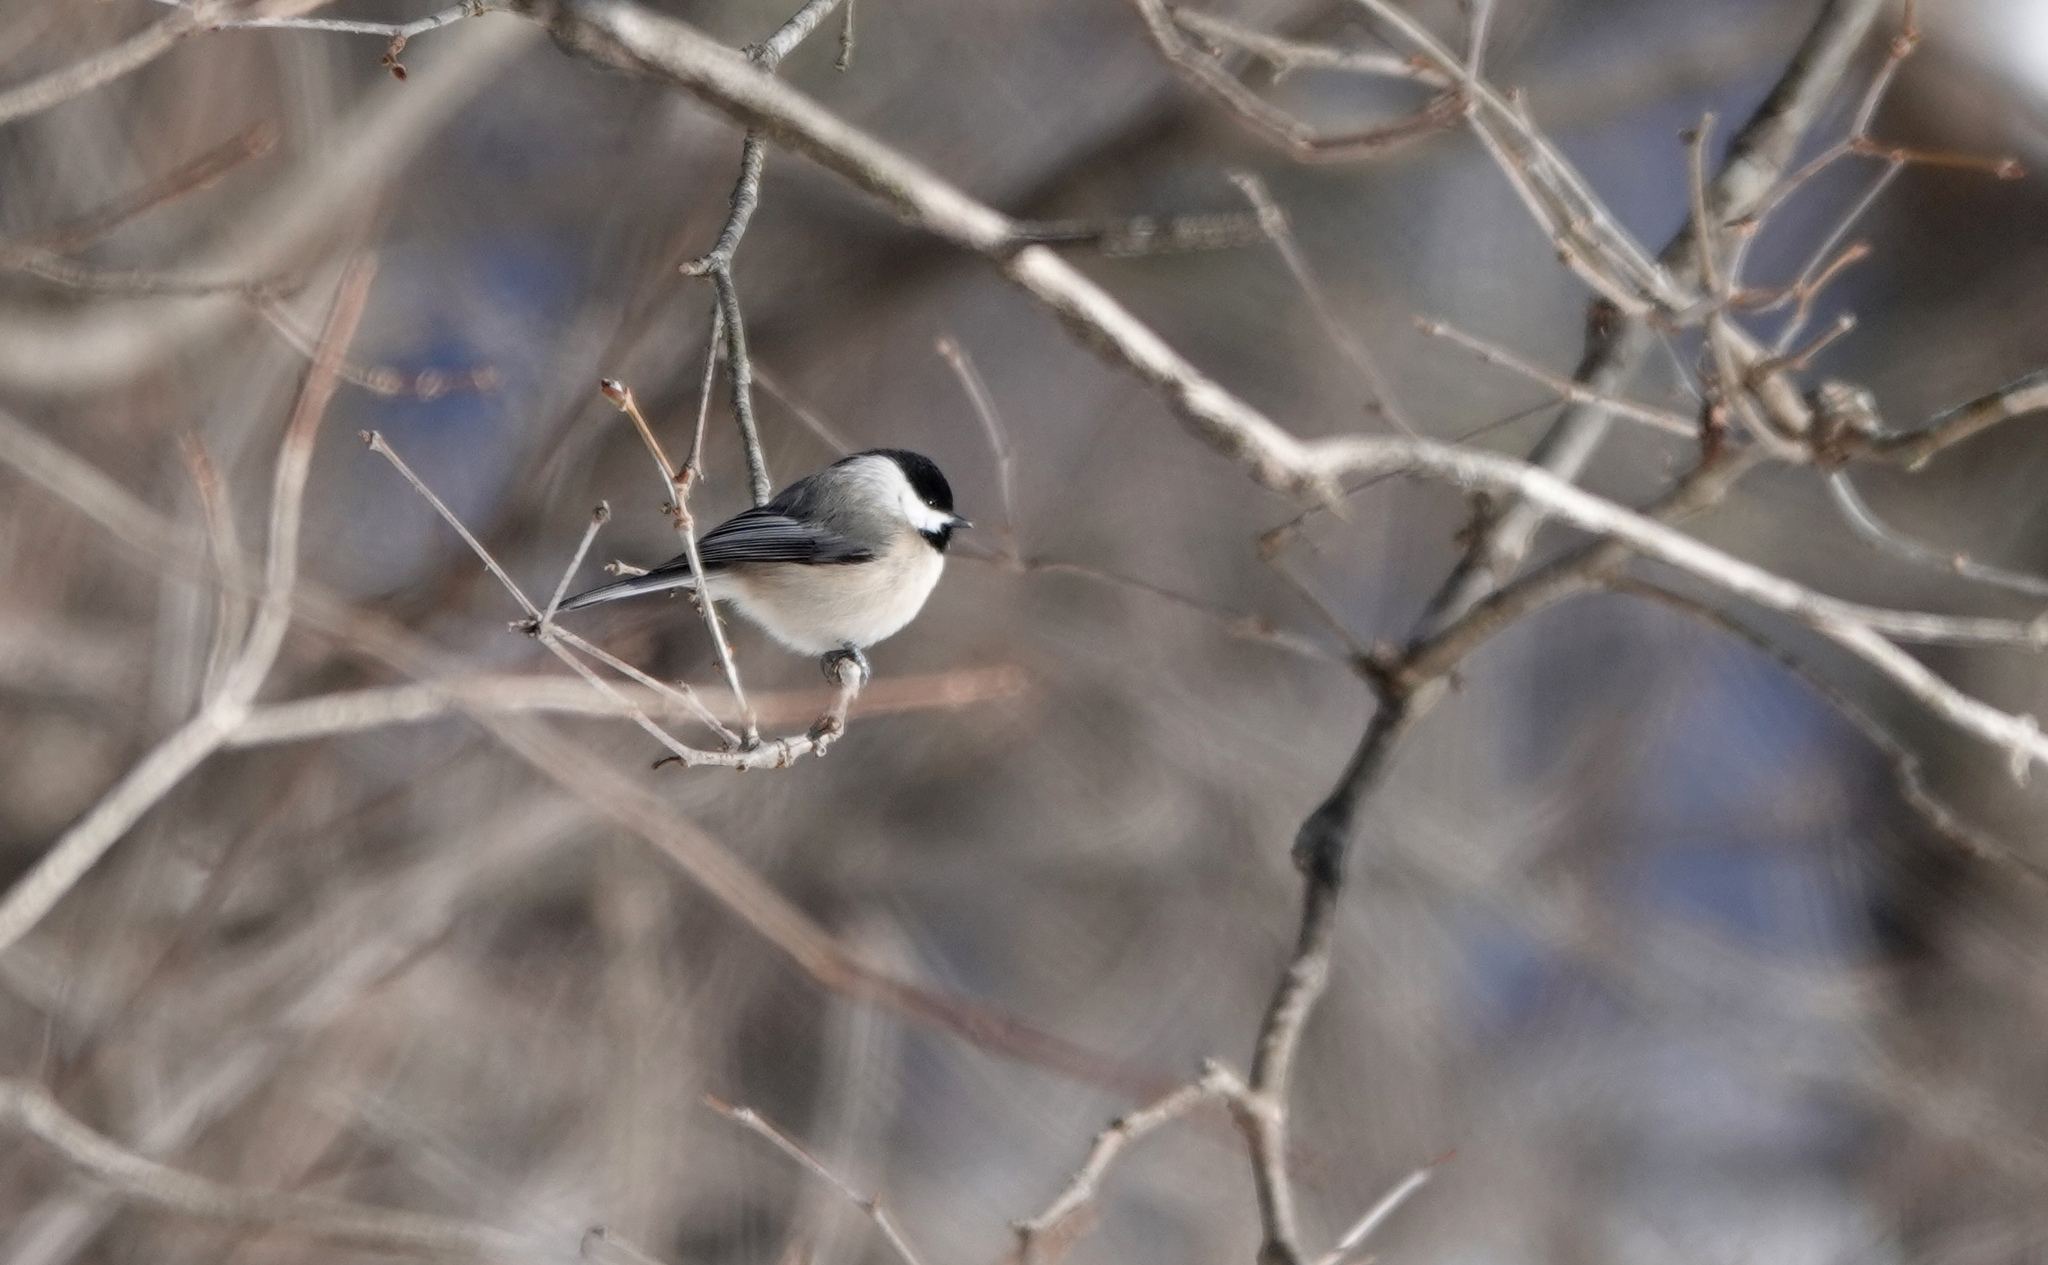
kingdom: Animalia
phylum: Chordata
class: Aves
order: Passeriformes
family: Paridae
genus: Poecile
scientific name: Poecile carolinensis
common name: Carolina chickadee
